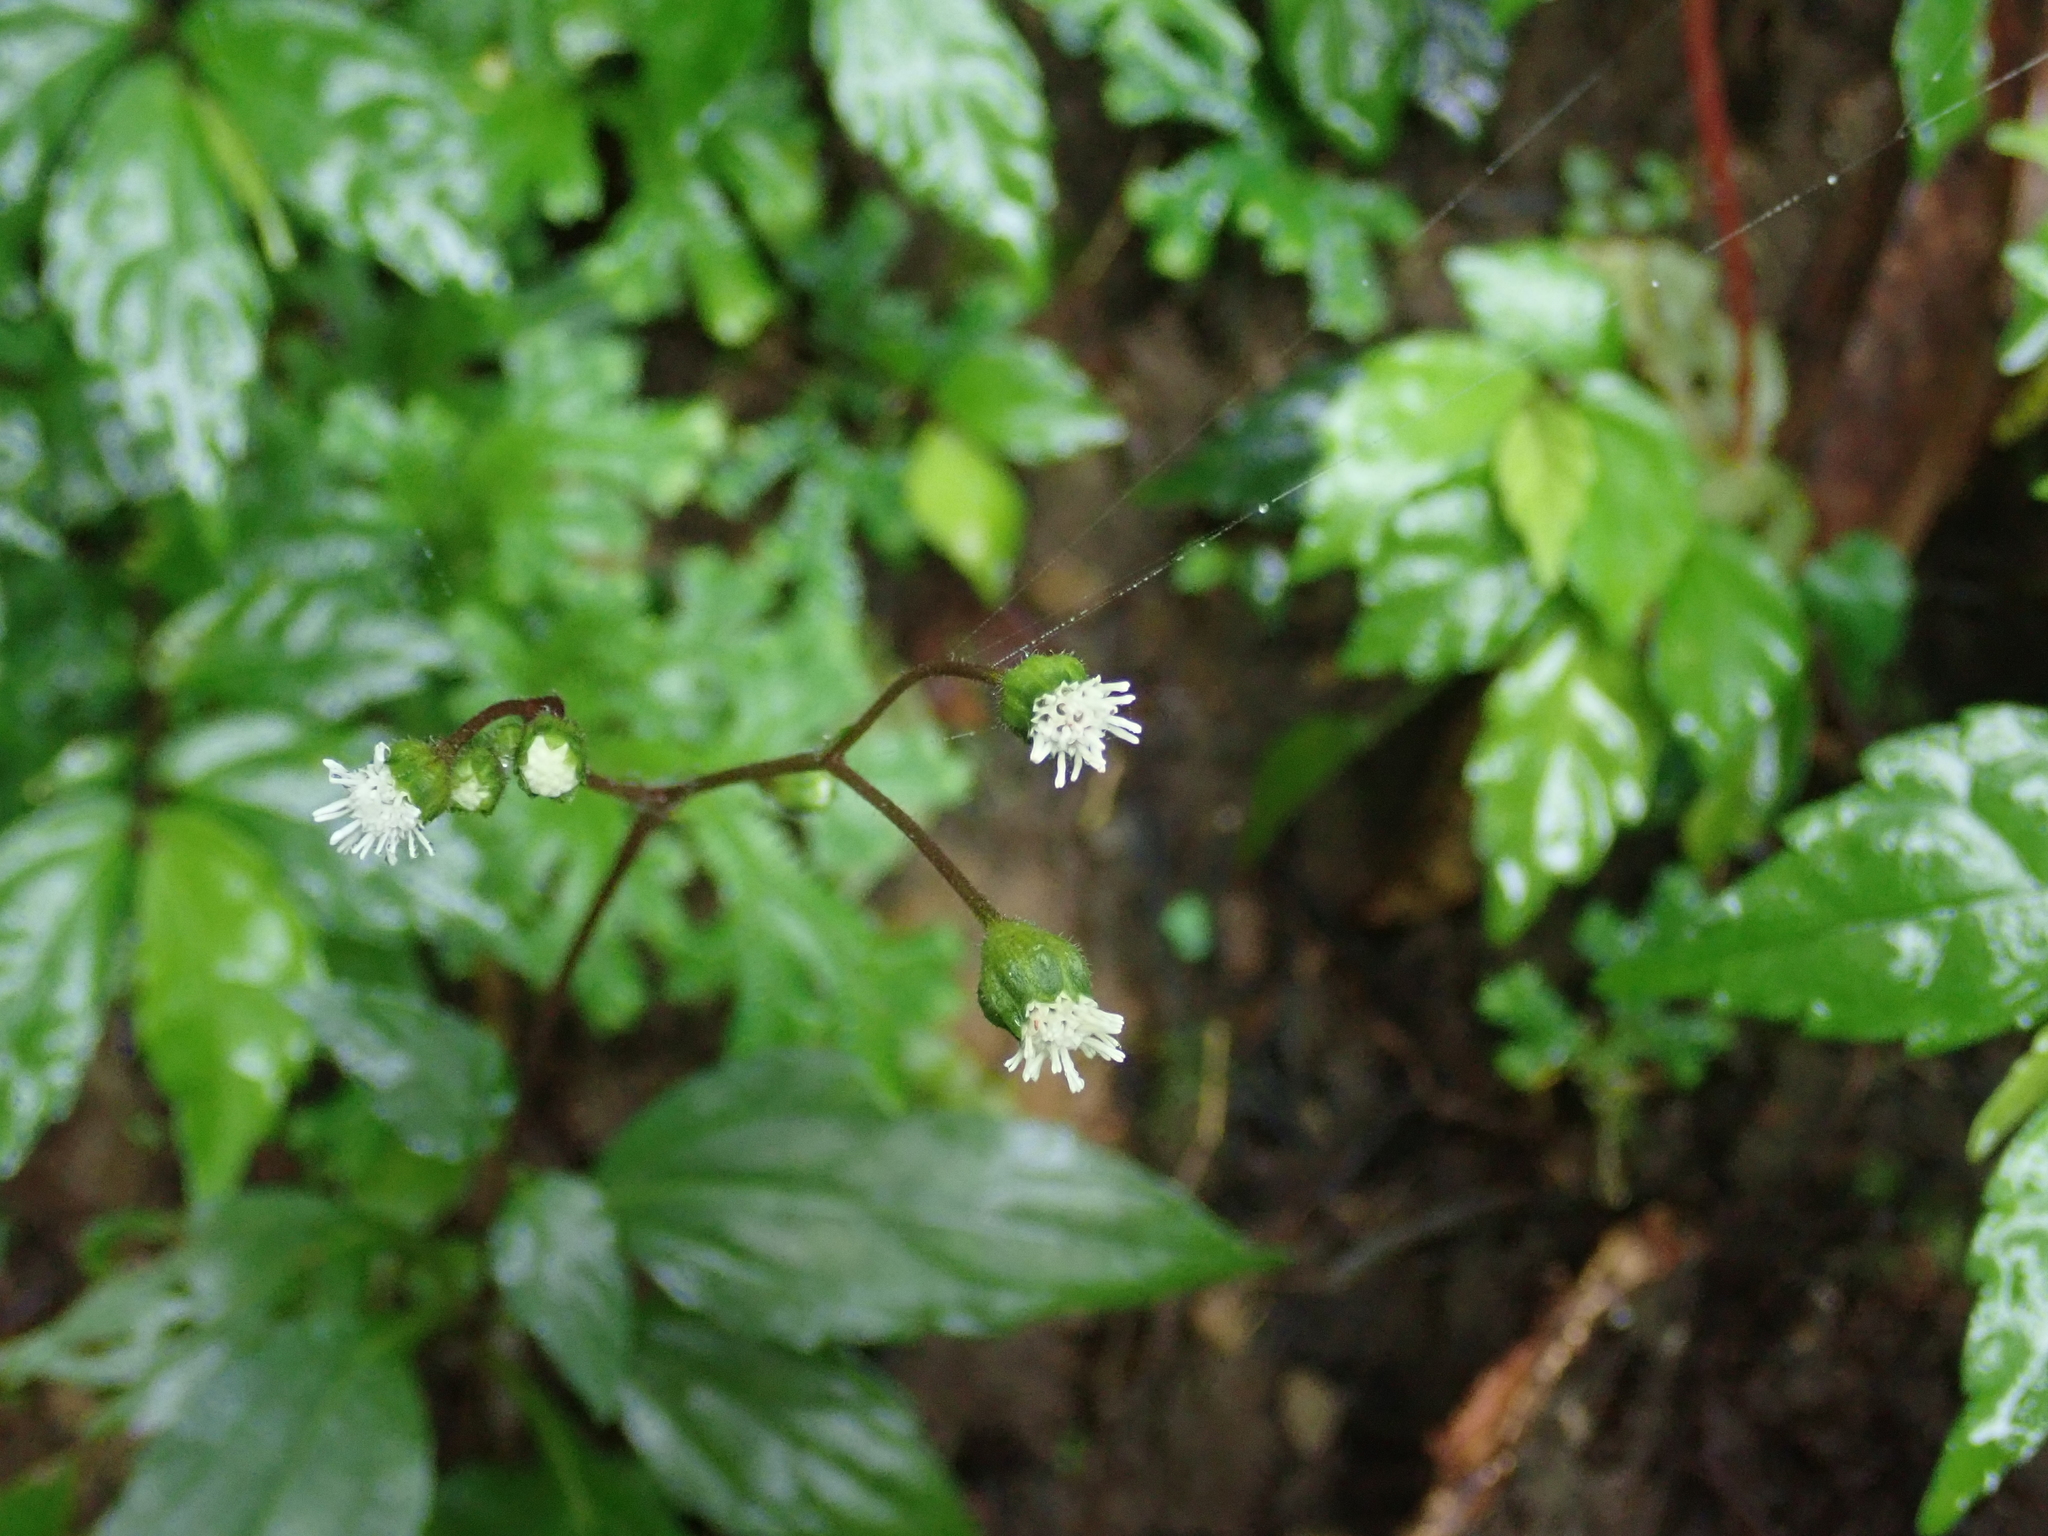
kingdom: Plantae
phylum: Tracheophyta
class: Magnoliopsida
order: Asterales
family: Asteraceae
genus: Adenostemma
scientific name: Adenostemma lavenia
